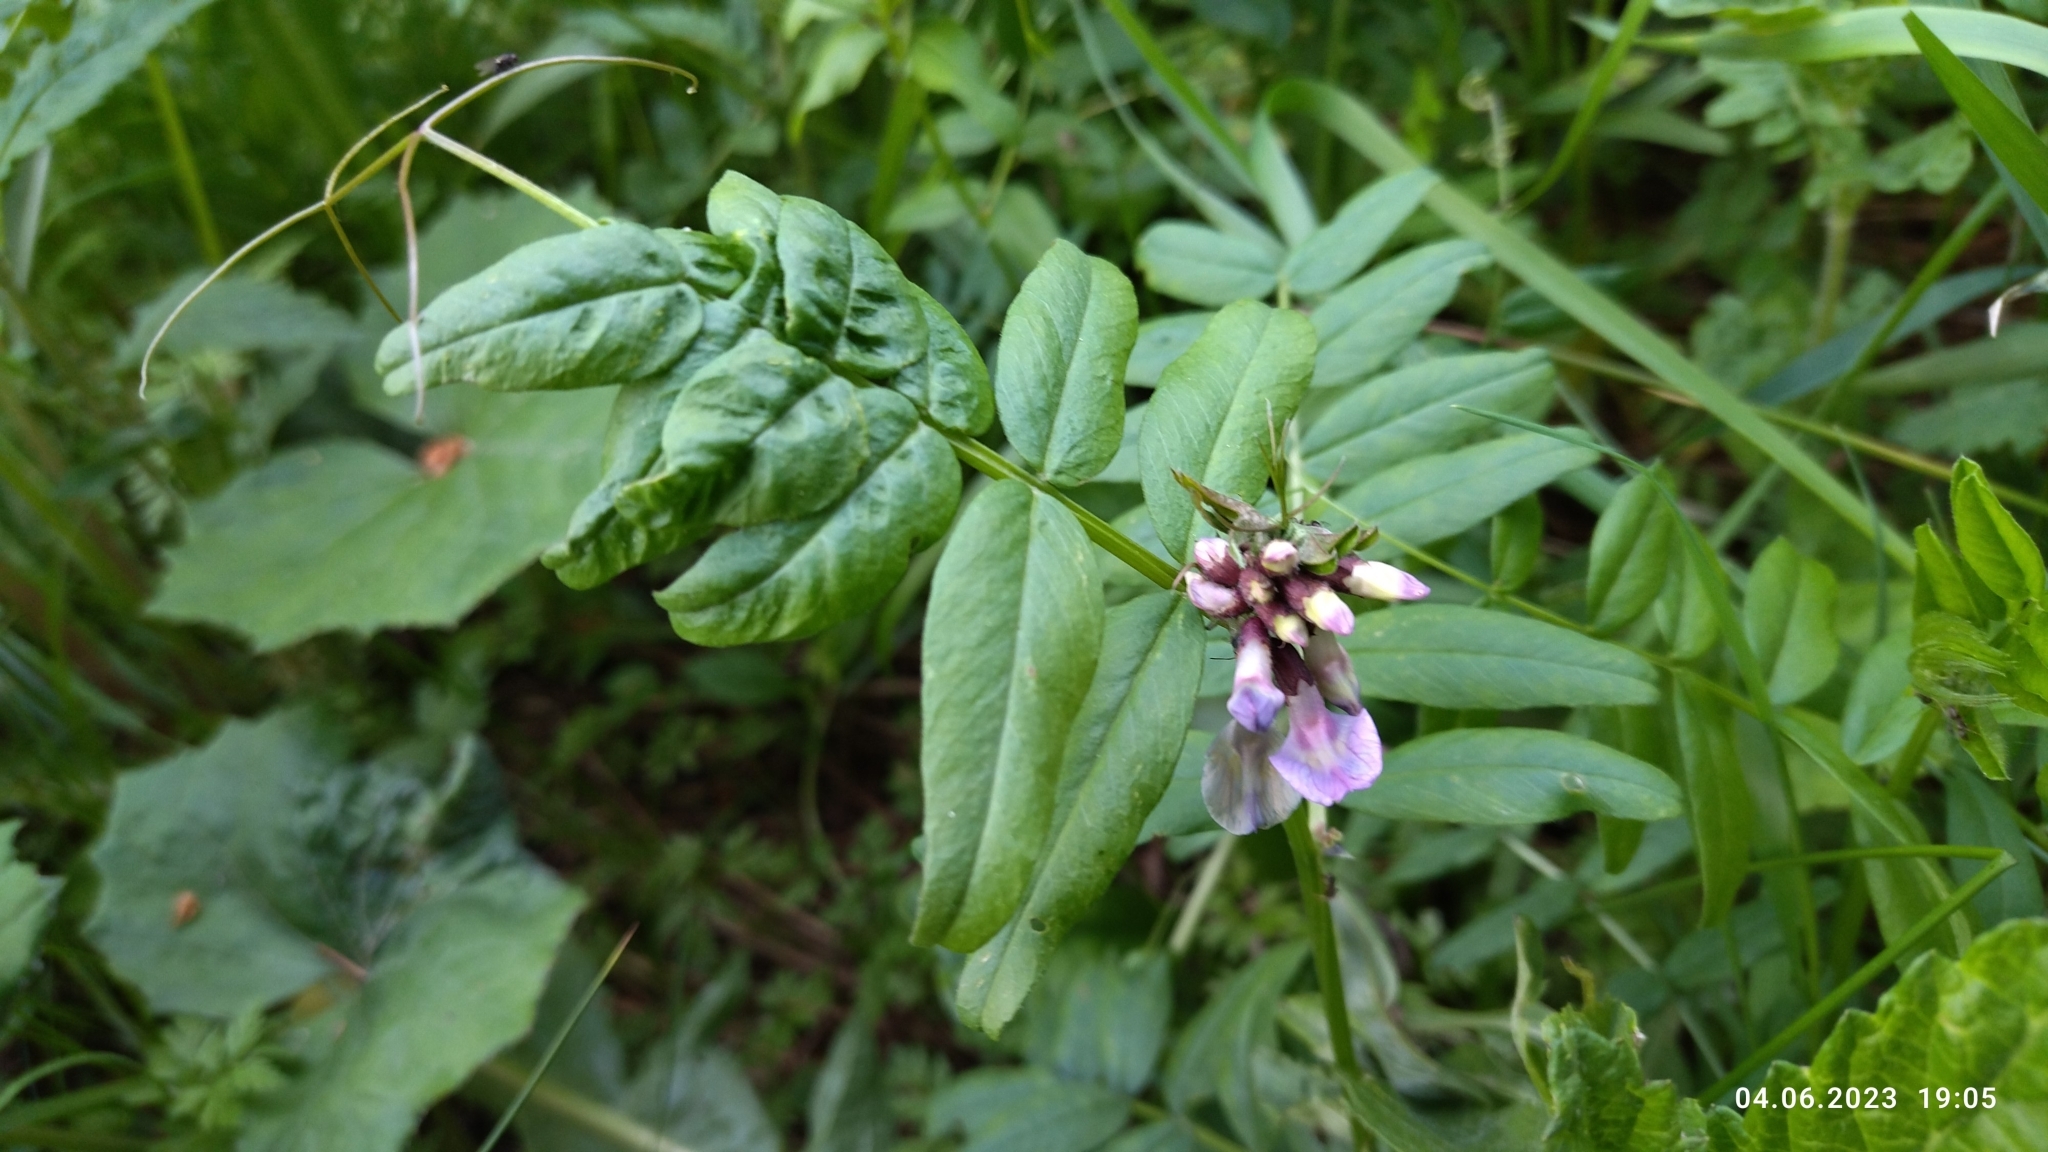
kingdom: Plantae
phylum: Tracheophyta
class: Magnoliopsida
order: Fabales
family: Fabaceae
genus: Vicia
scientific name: Vicia sepium
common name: Bush vetch
